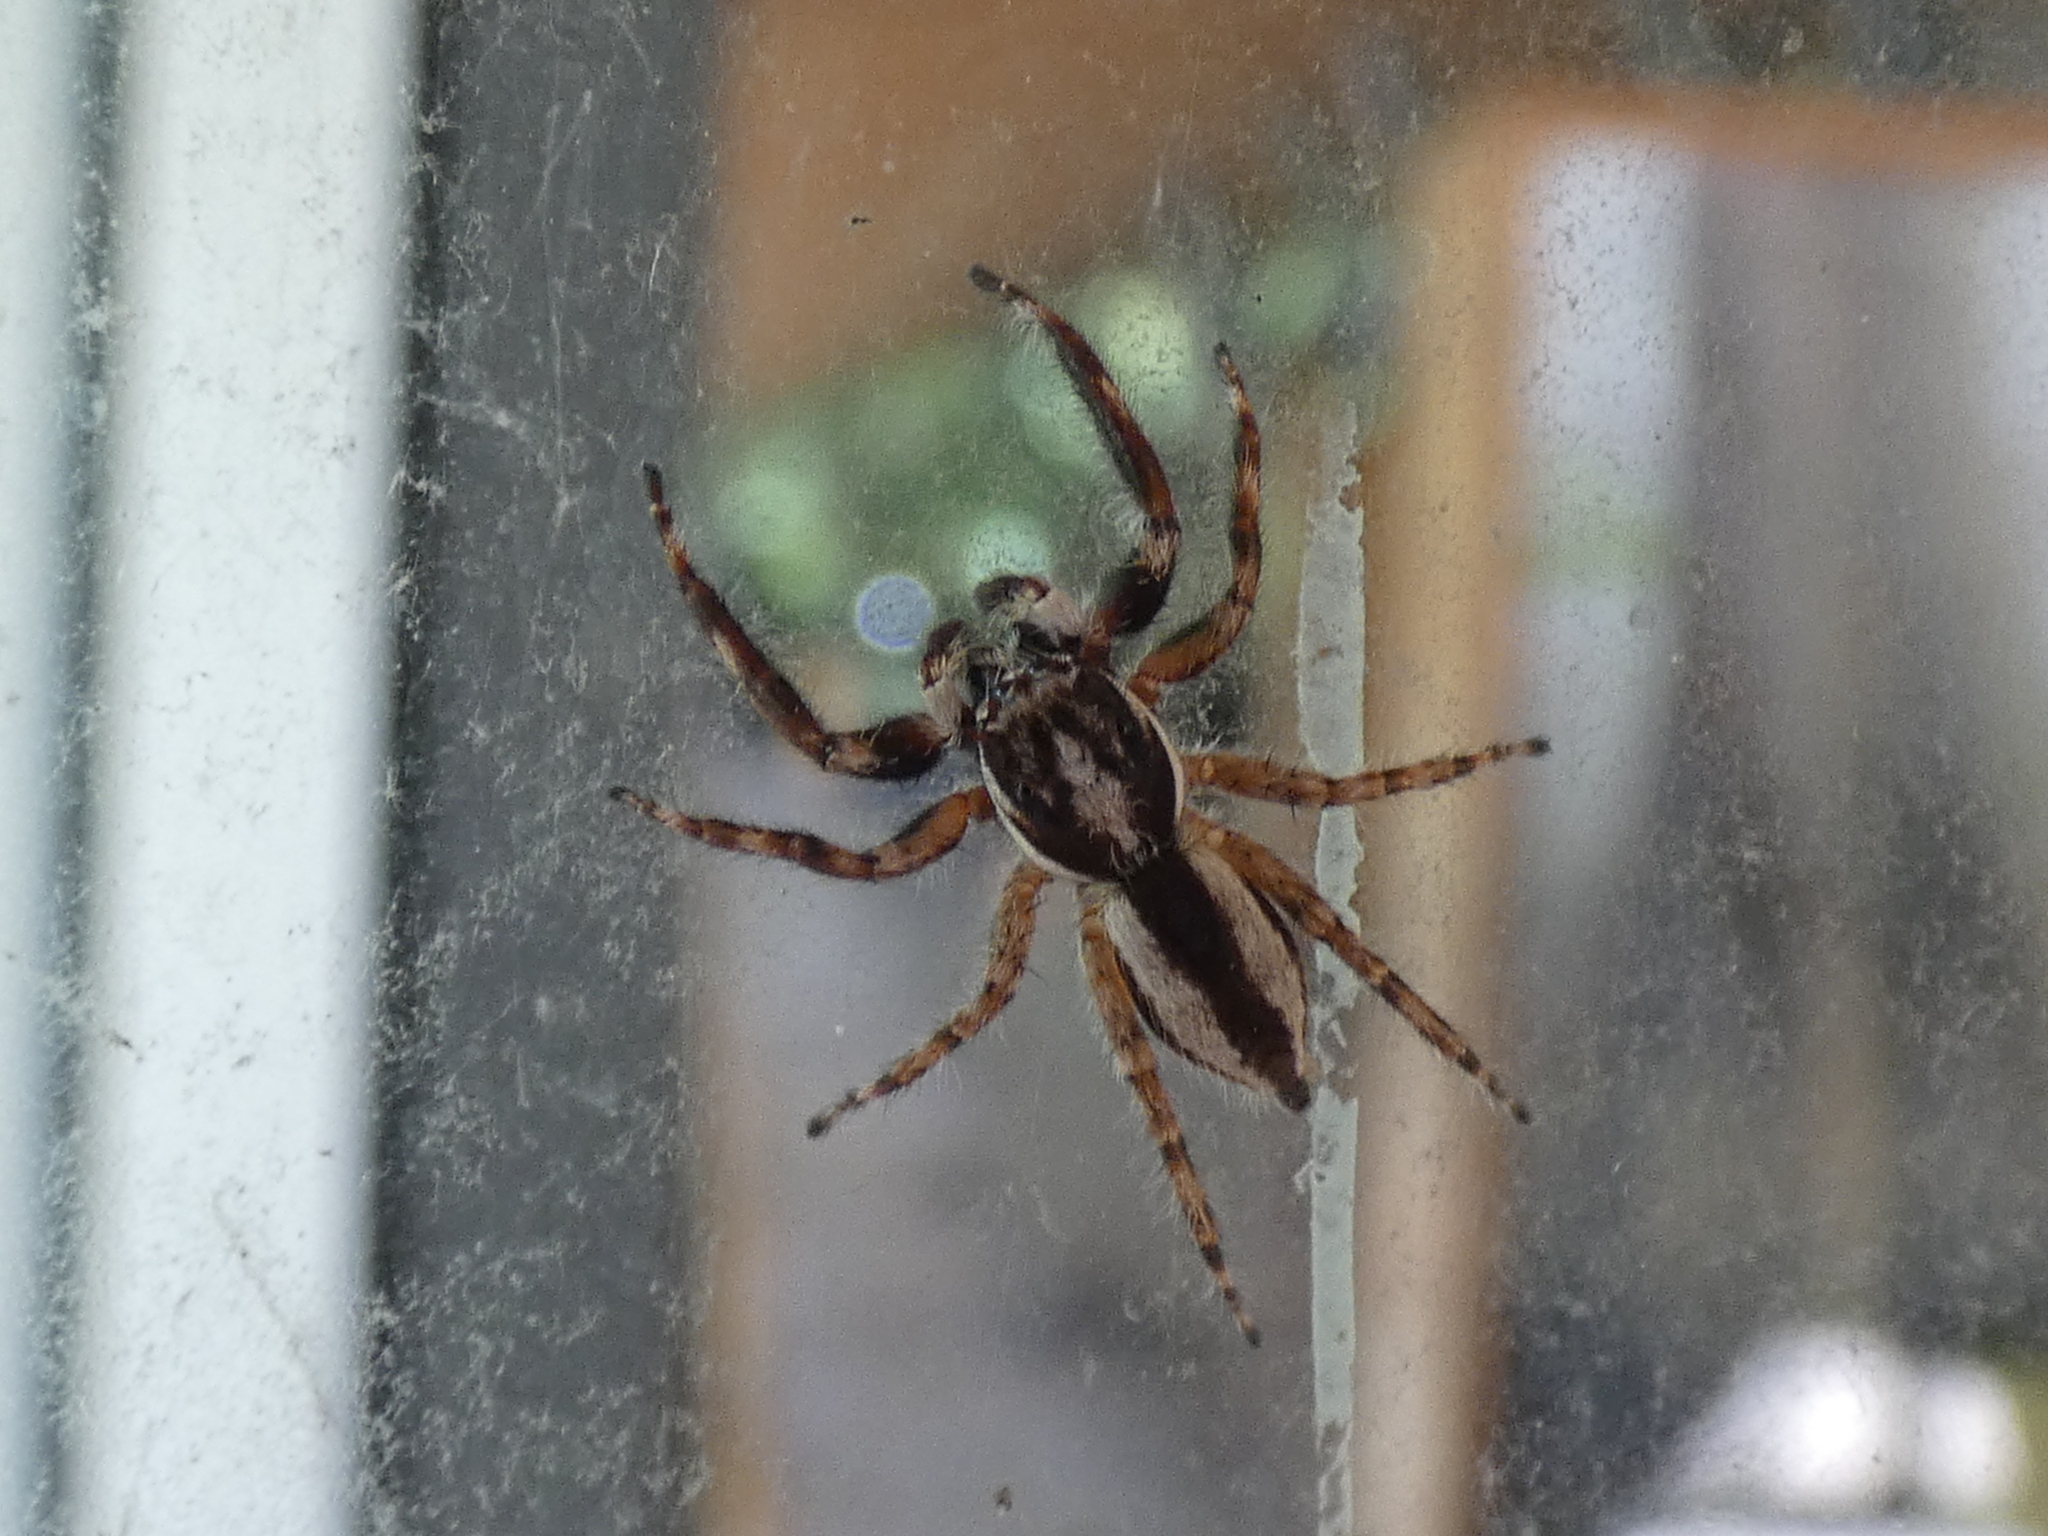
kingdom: Animalia
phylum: Arthropoda
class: Arachnida
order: Araneae
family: Salticidae
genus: Menemerus
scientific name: Menemerus bivittatus
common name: Gray wall jumper
